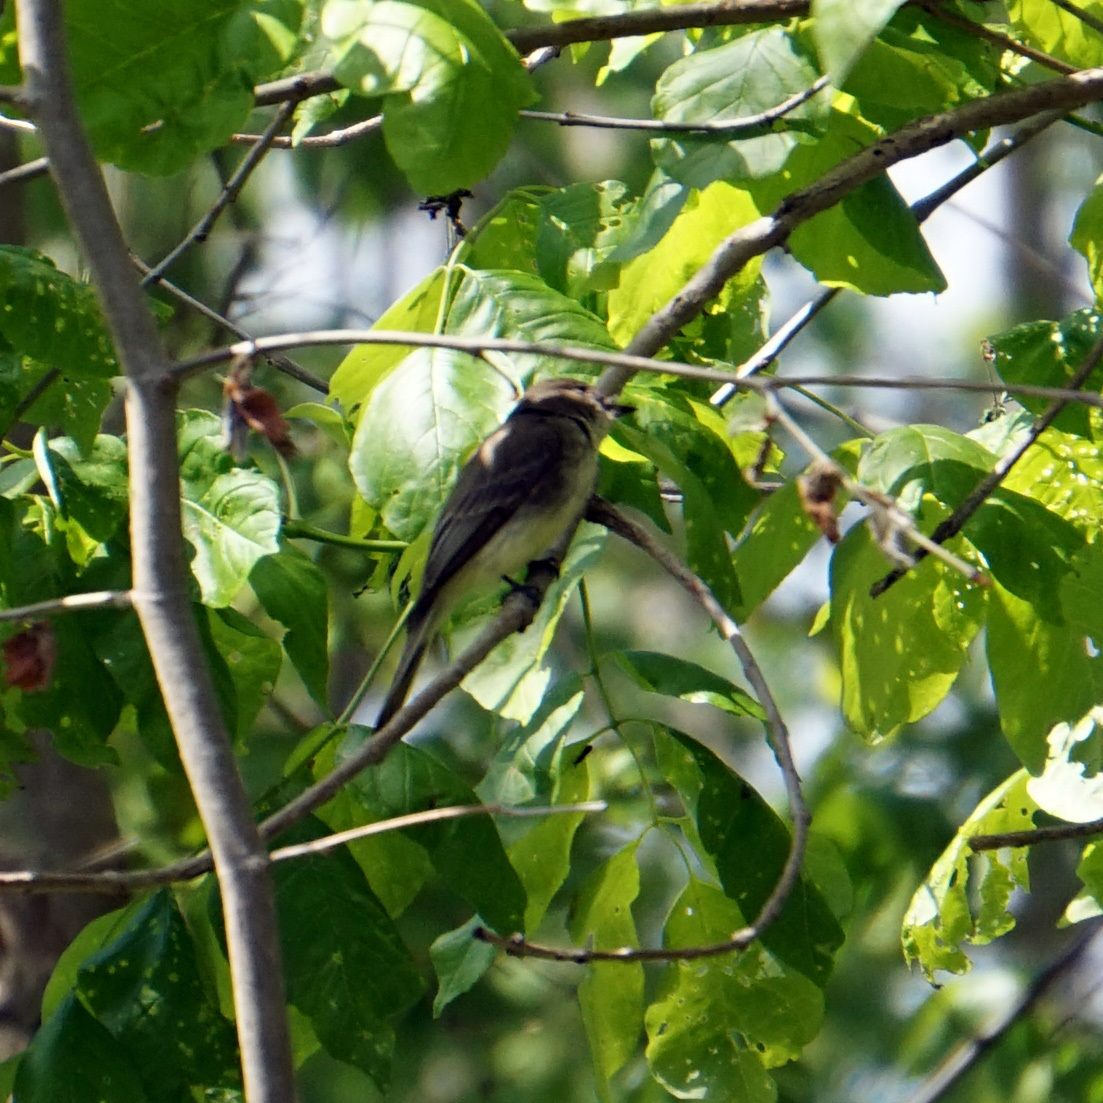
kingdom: Animalia
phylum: Chordata
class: Aves
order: Passeriformes
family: Tyrannidae
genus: Sayornis
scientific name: Sayornis phoebe
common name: Eastern phoebe
